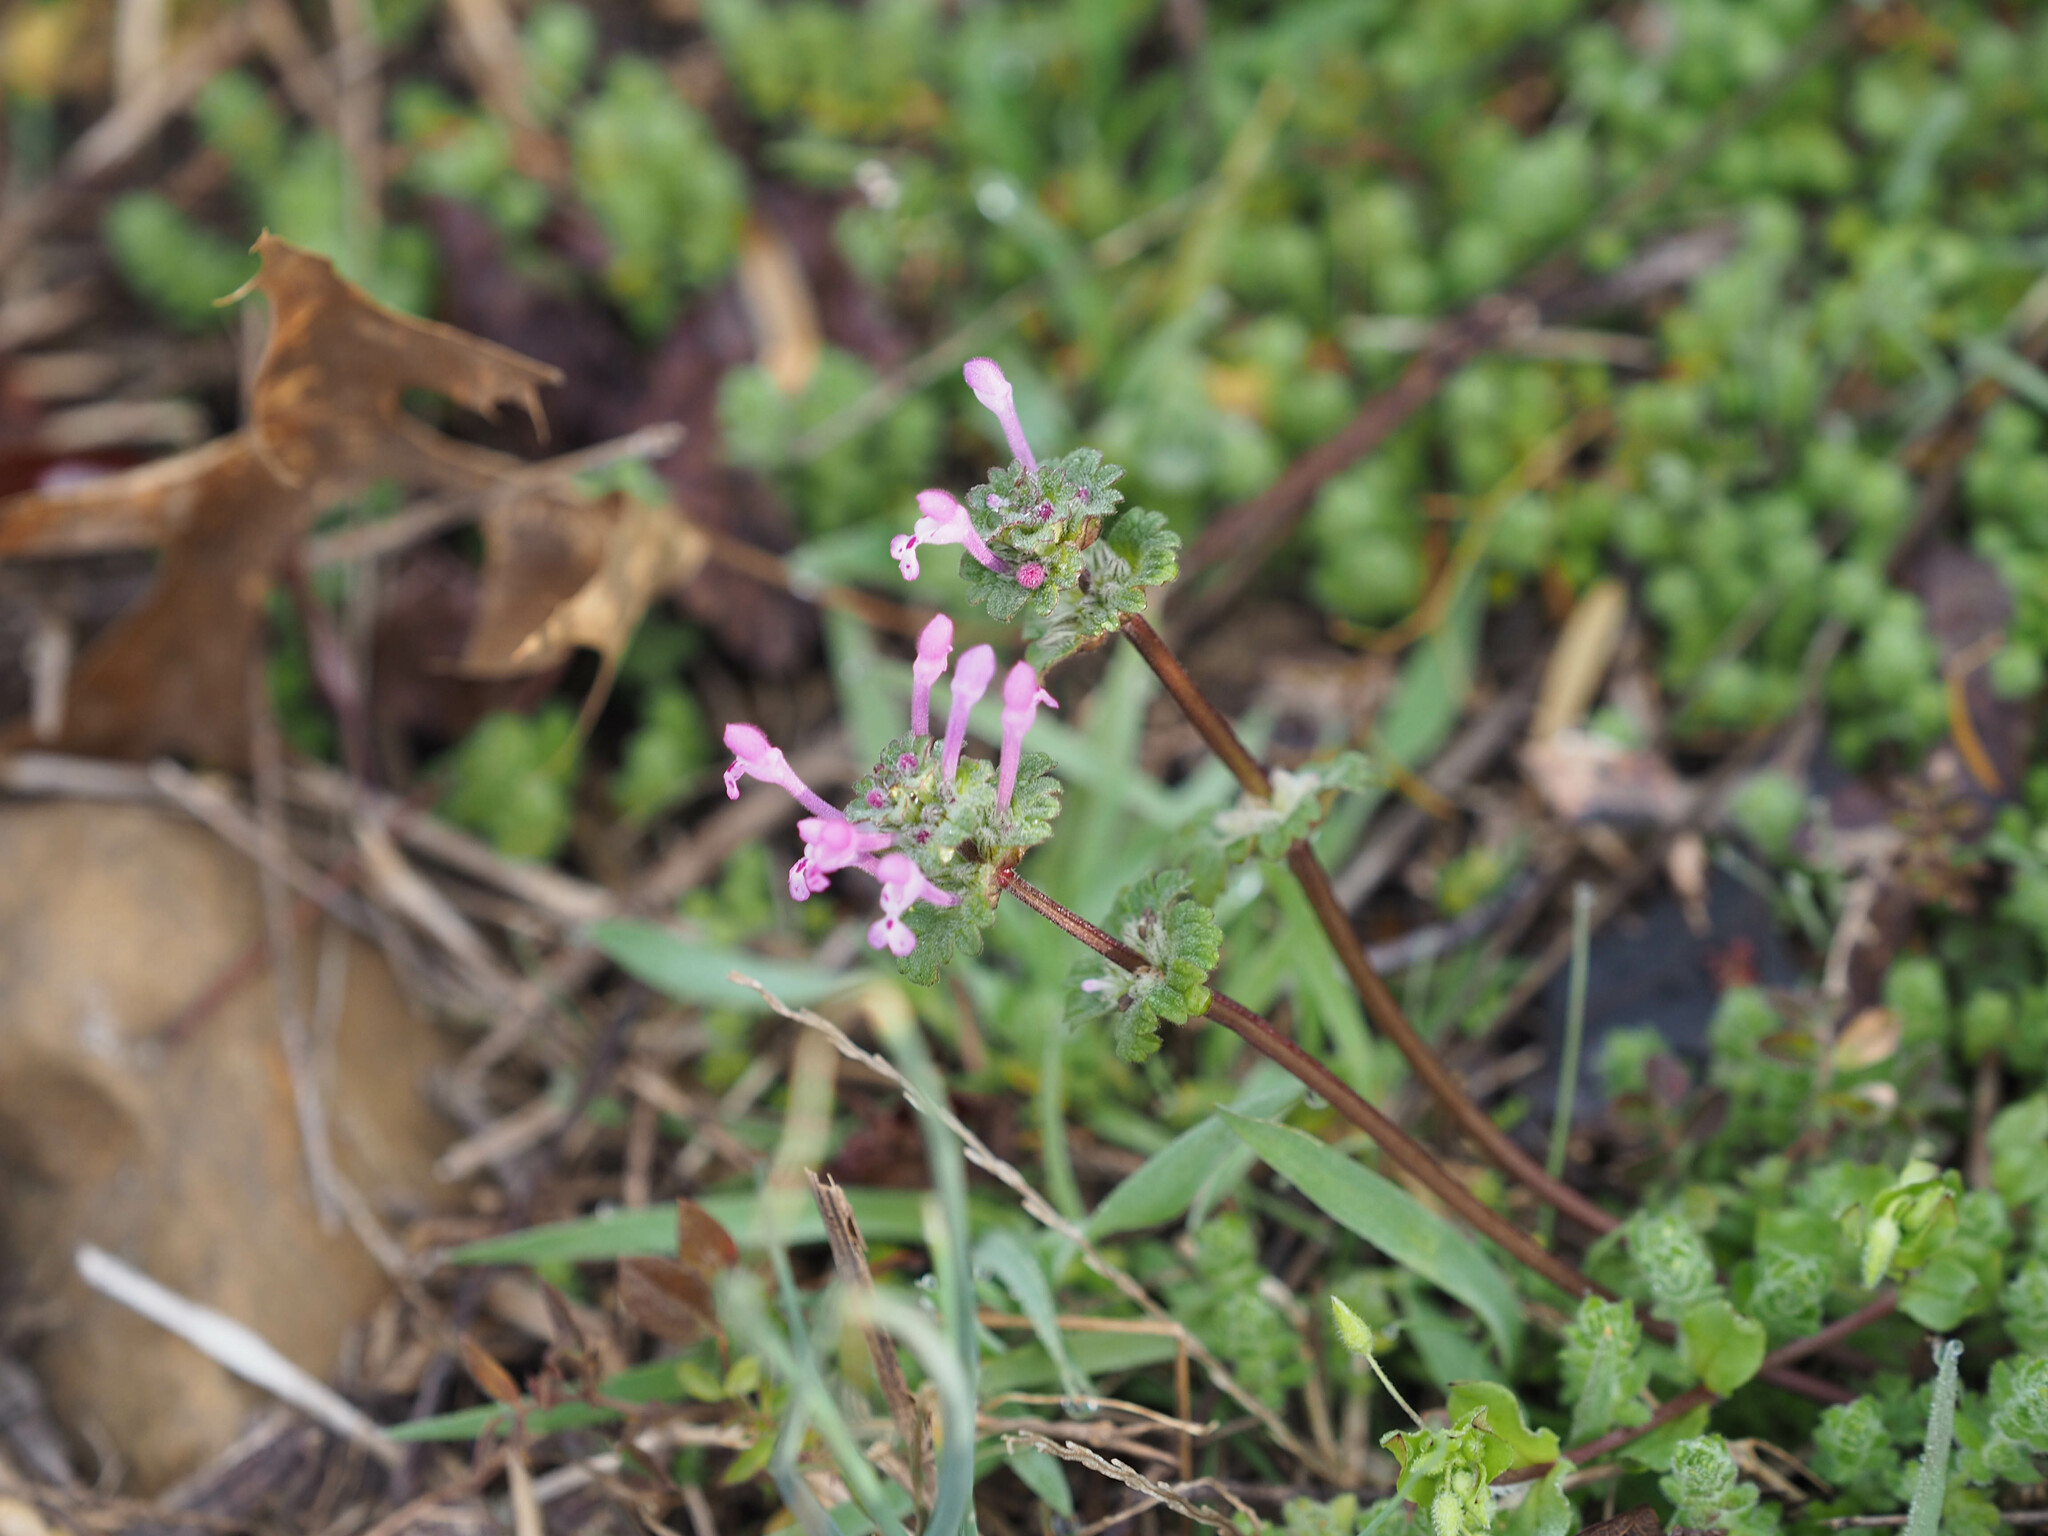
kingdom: Plantae
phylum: Tracheophyta
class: Magnoliopsida
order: Lamiales
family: Lamiaceae
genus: Lamium
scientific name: Lamium amplexicaule
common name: Henbit dead-nettle
